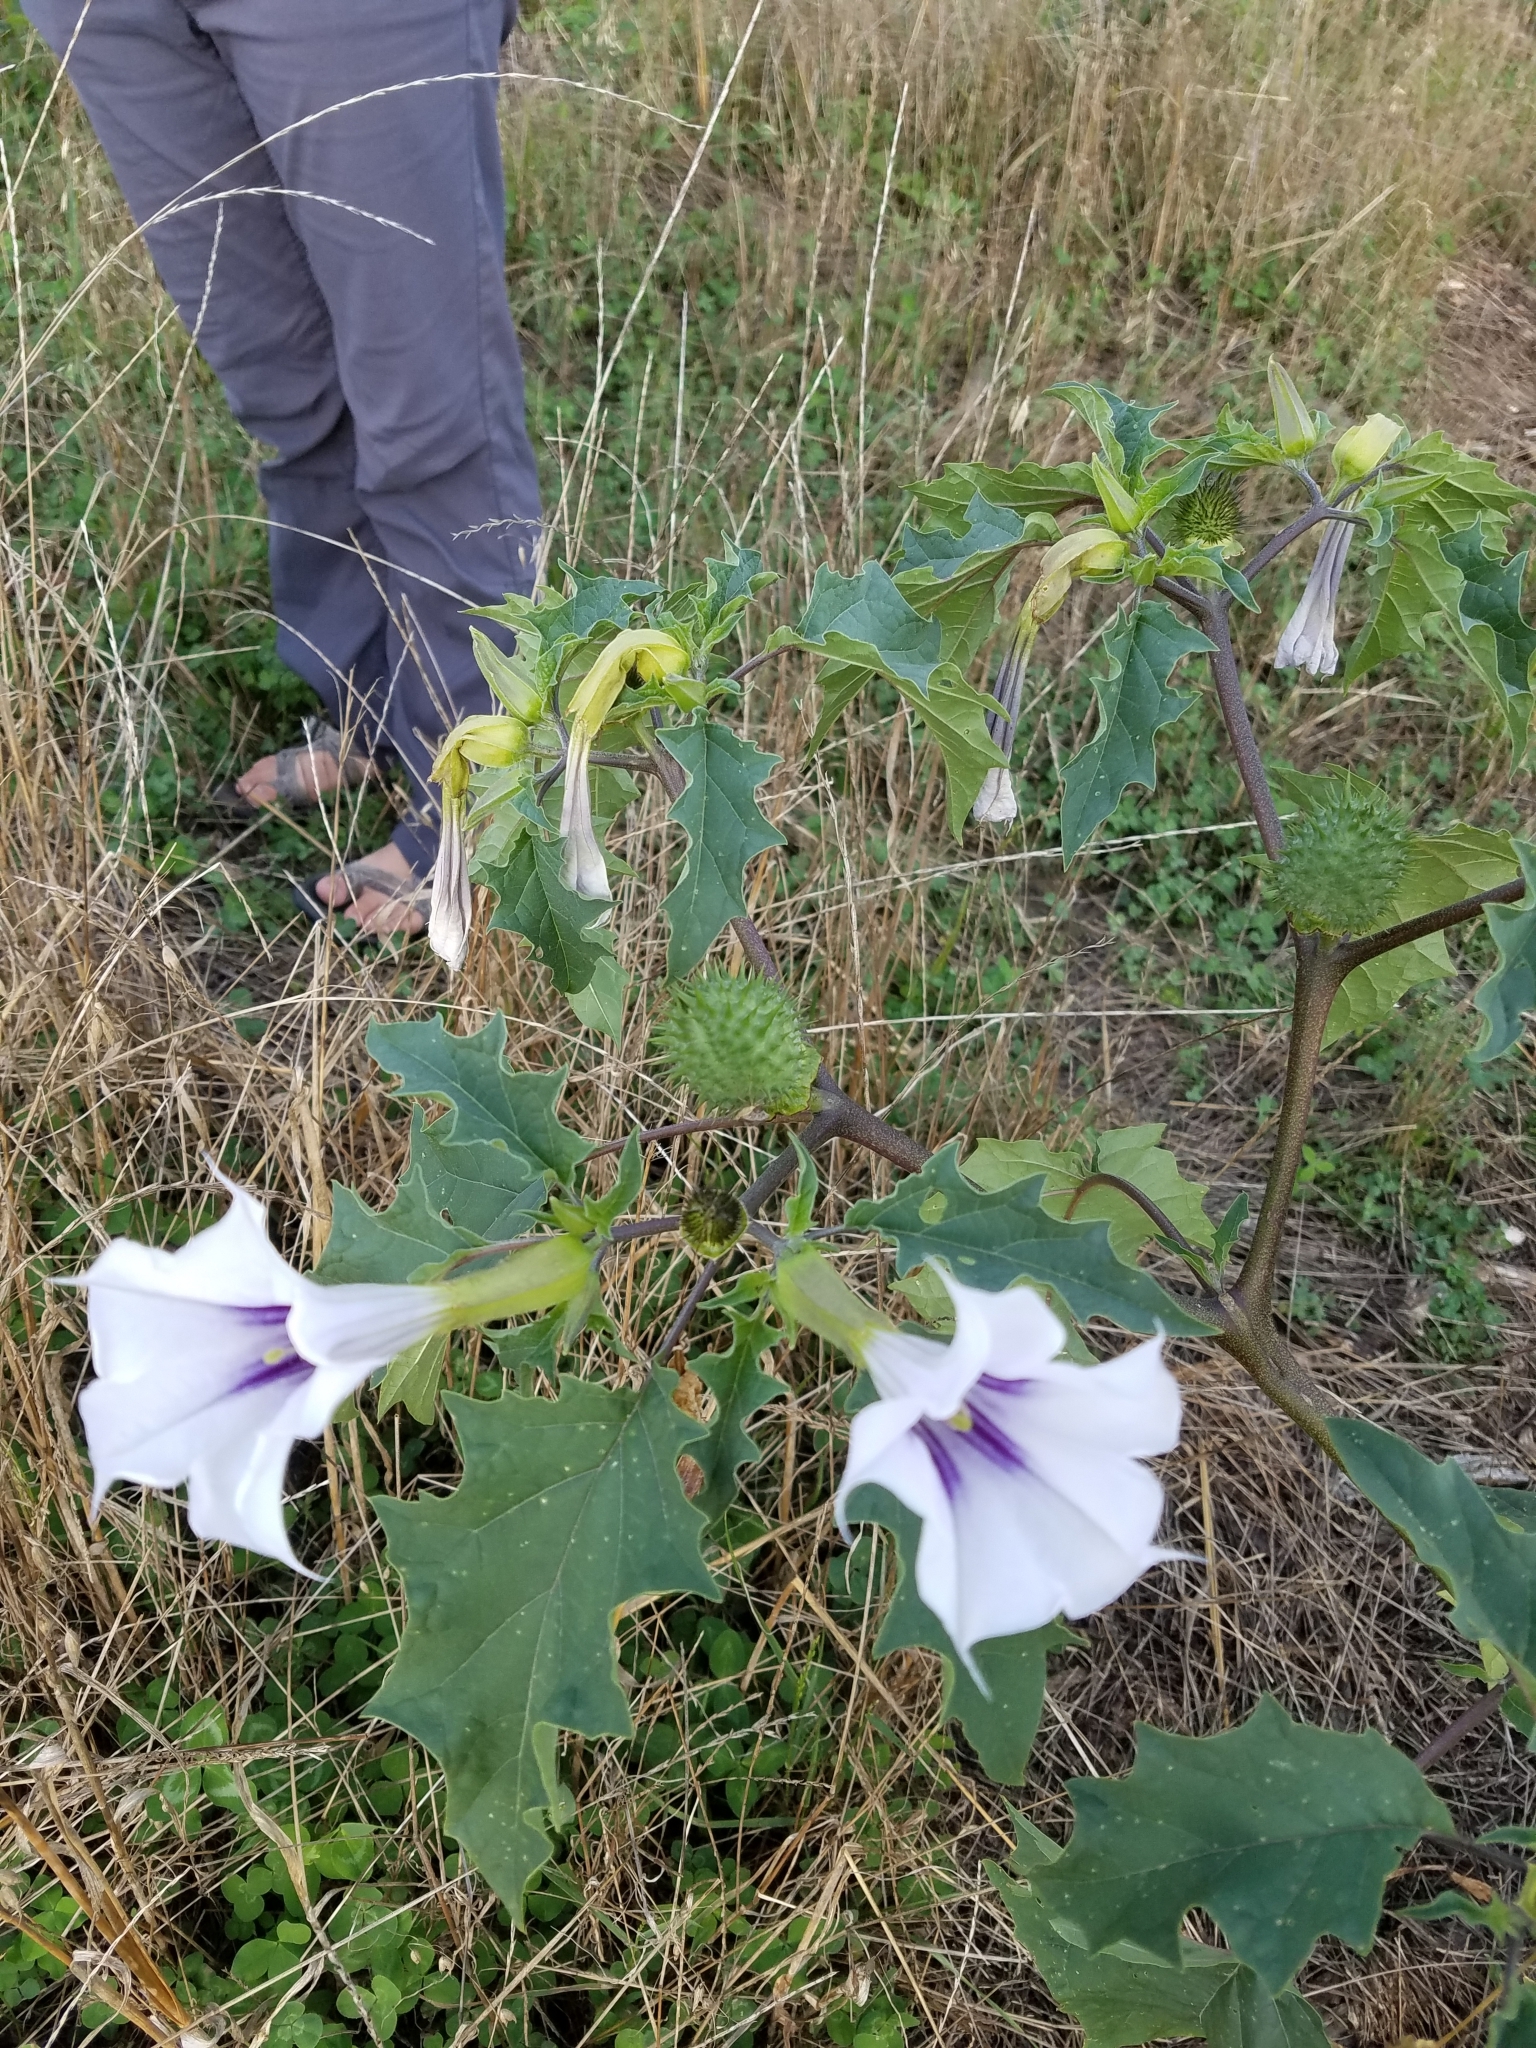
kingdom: Plantae
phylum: Tracheophyta
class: Magnoliopsida
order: Solanales
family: Solanaceae
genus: Datura
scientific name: Datura stramonium
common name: Thorn-apple
